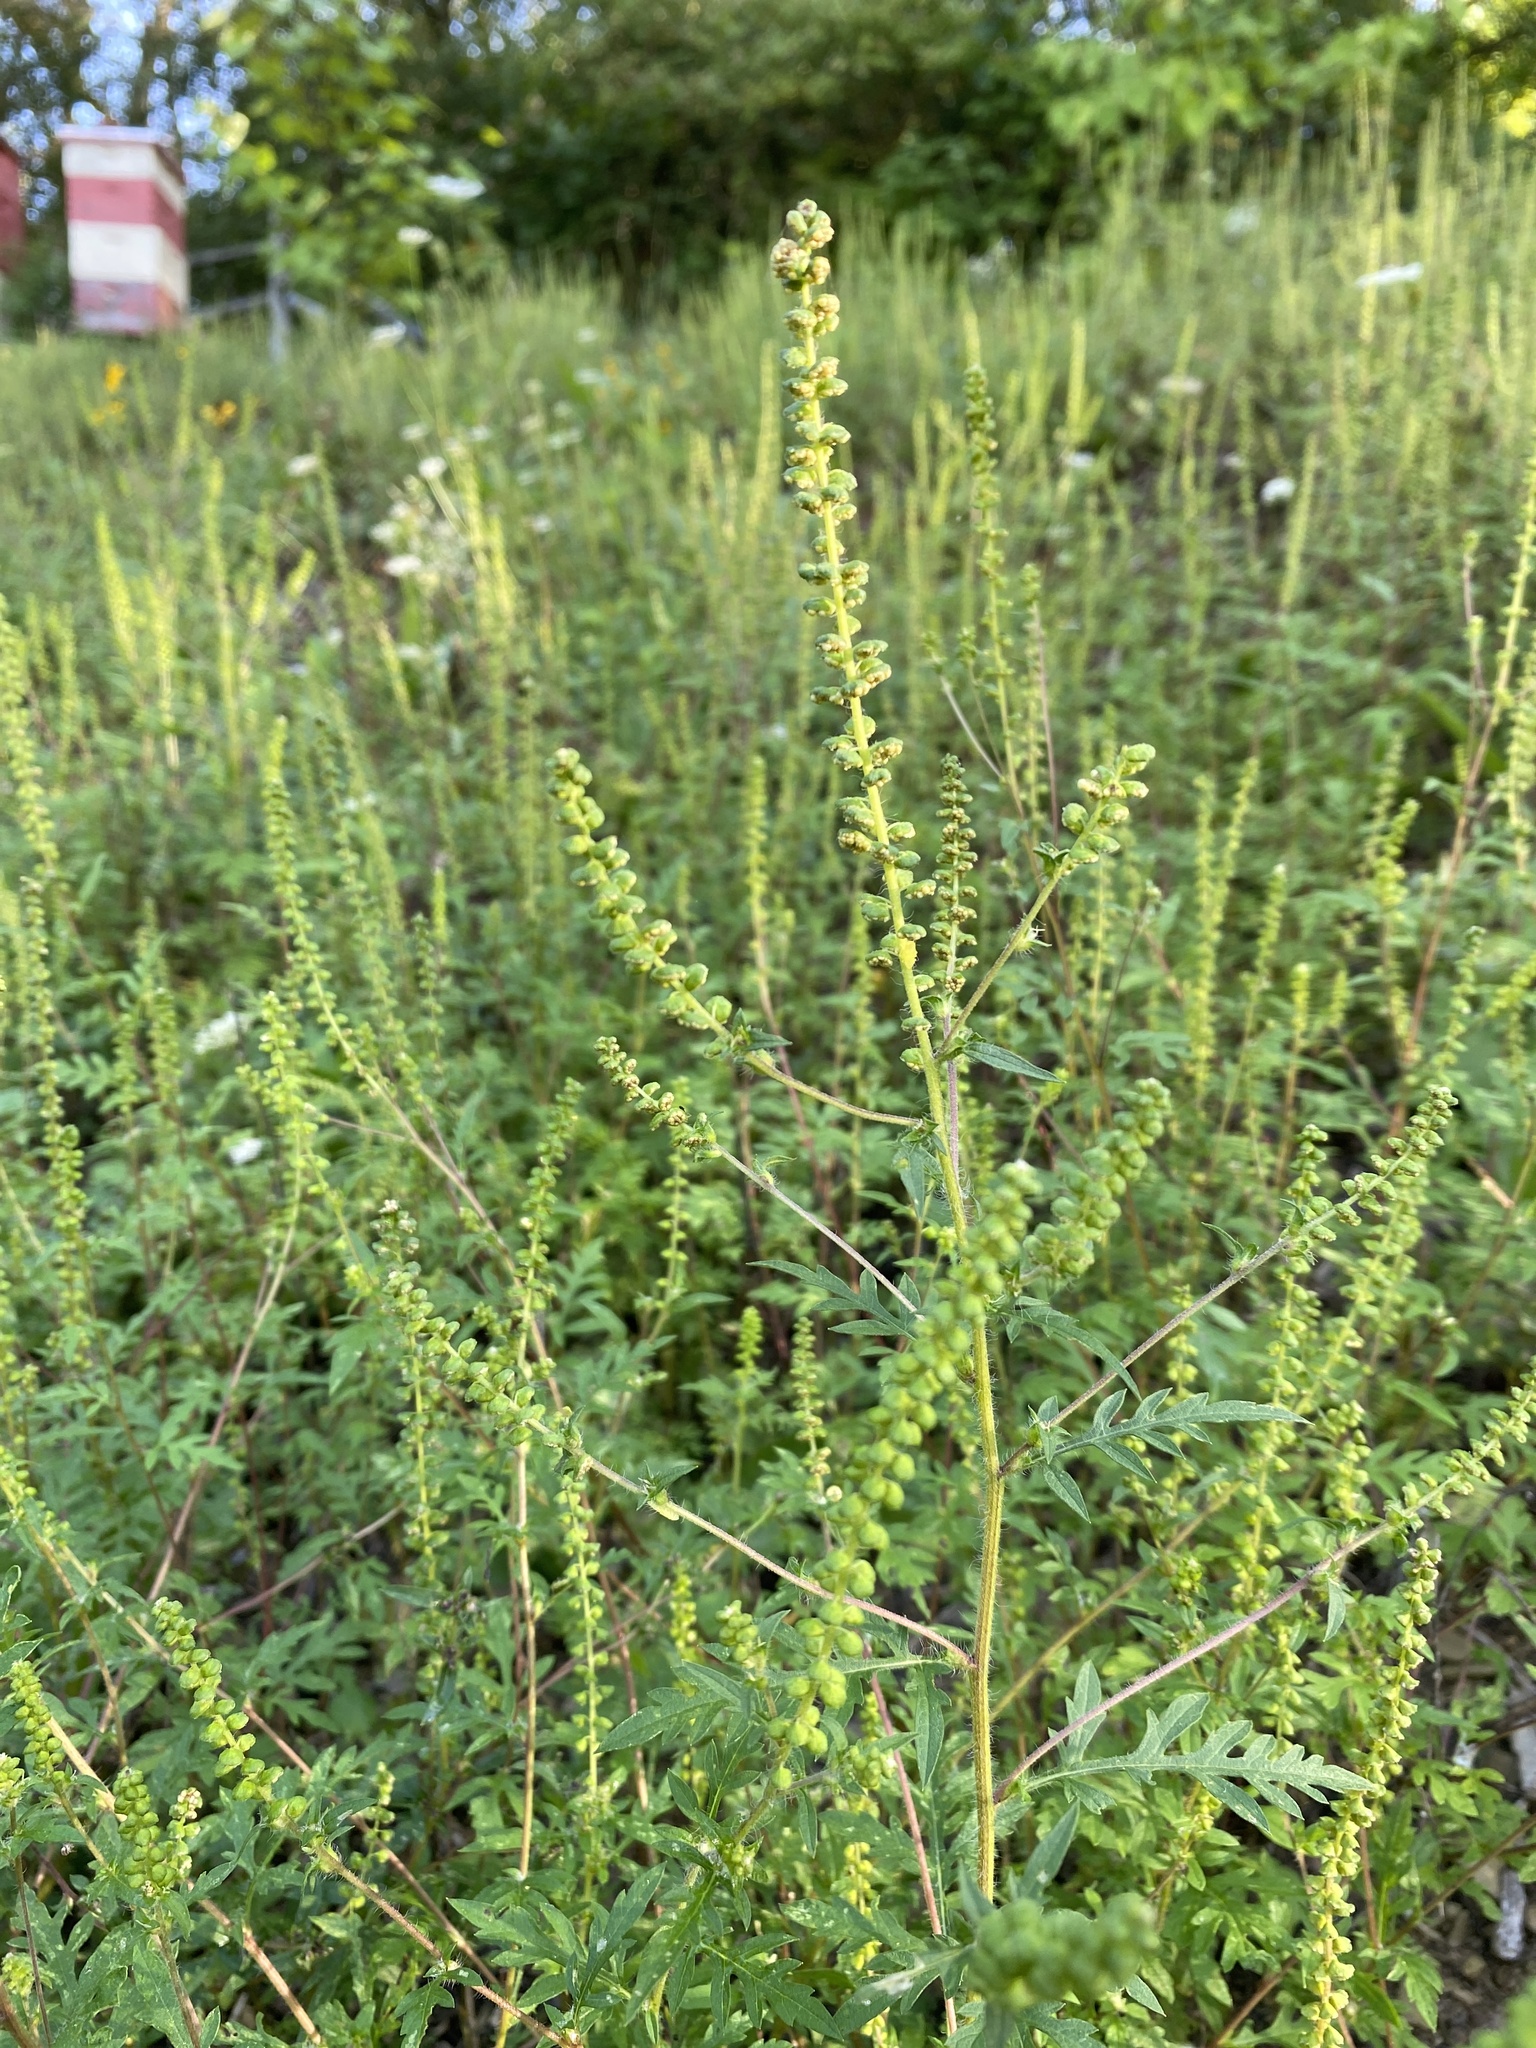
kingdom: Plantae
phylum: Tracheophyta
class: Magnoliopsida
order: Asterales
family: Asteraceae
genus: Ambrosia
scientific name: Ambrosia artemisiifolia
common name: Annual ragweed
